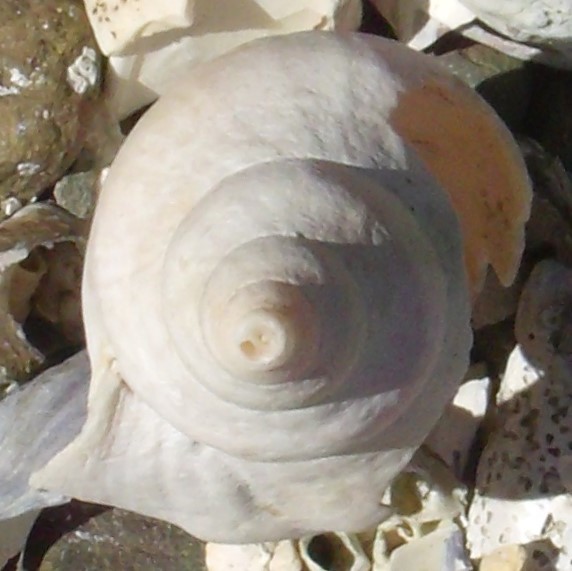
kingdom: Animalia
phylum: Mollusca
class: Gastropoda
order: Neogastropoda
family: Volutidae
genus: Alcithoe
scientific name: Alcithoe arabica
